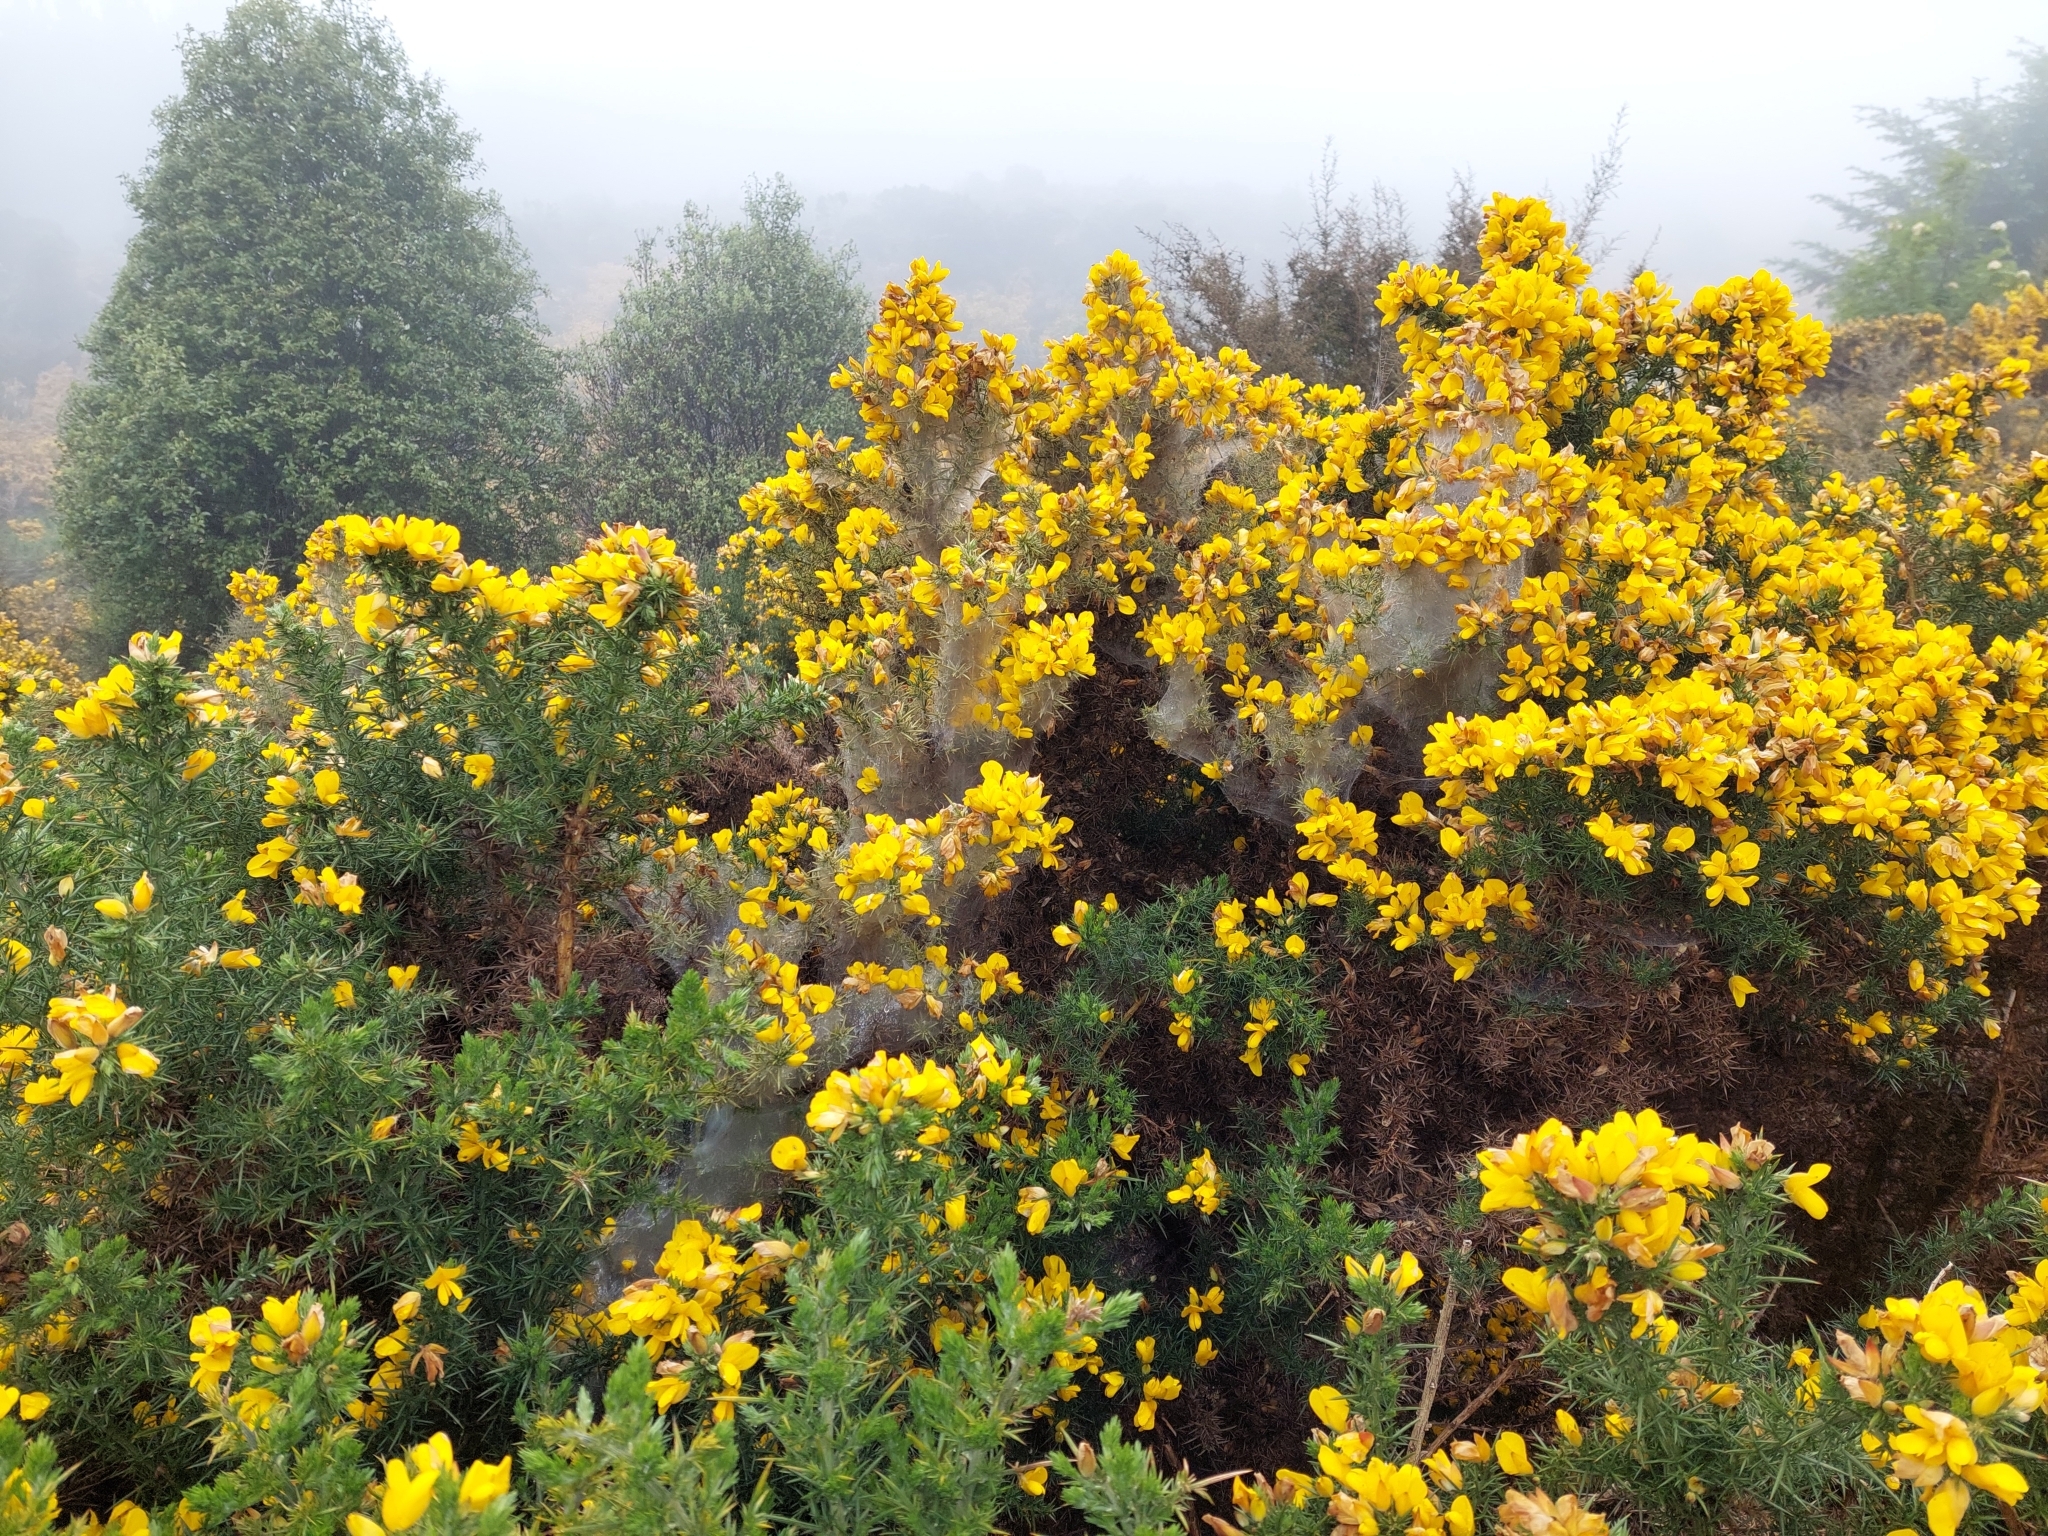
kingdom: Plantae
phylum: Tracheophyta
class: Magnoliopsida
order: Fabales
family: Fabaceae
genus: Ulex
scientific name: Ulex europaeus
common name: Common gorse
